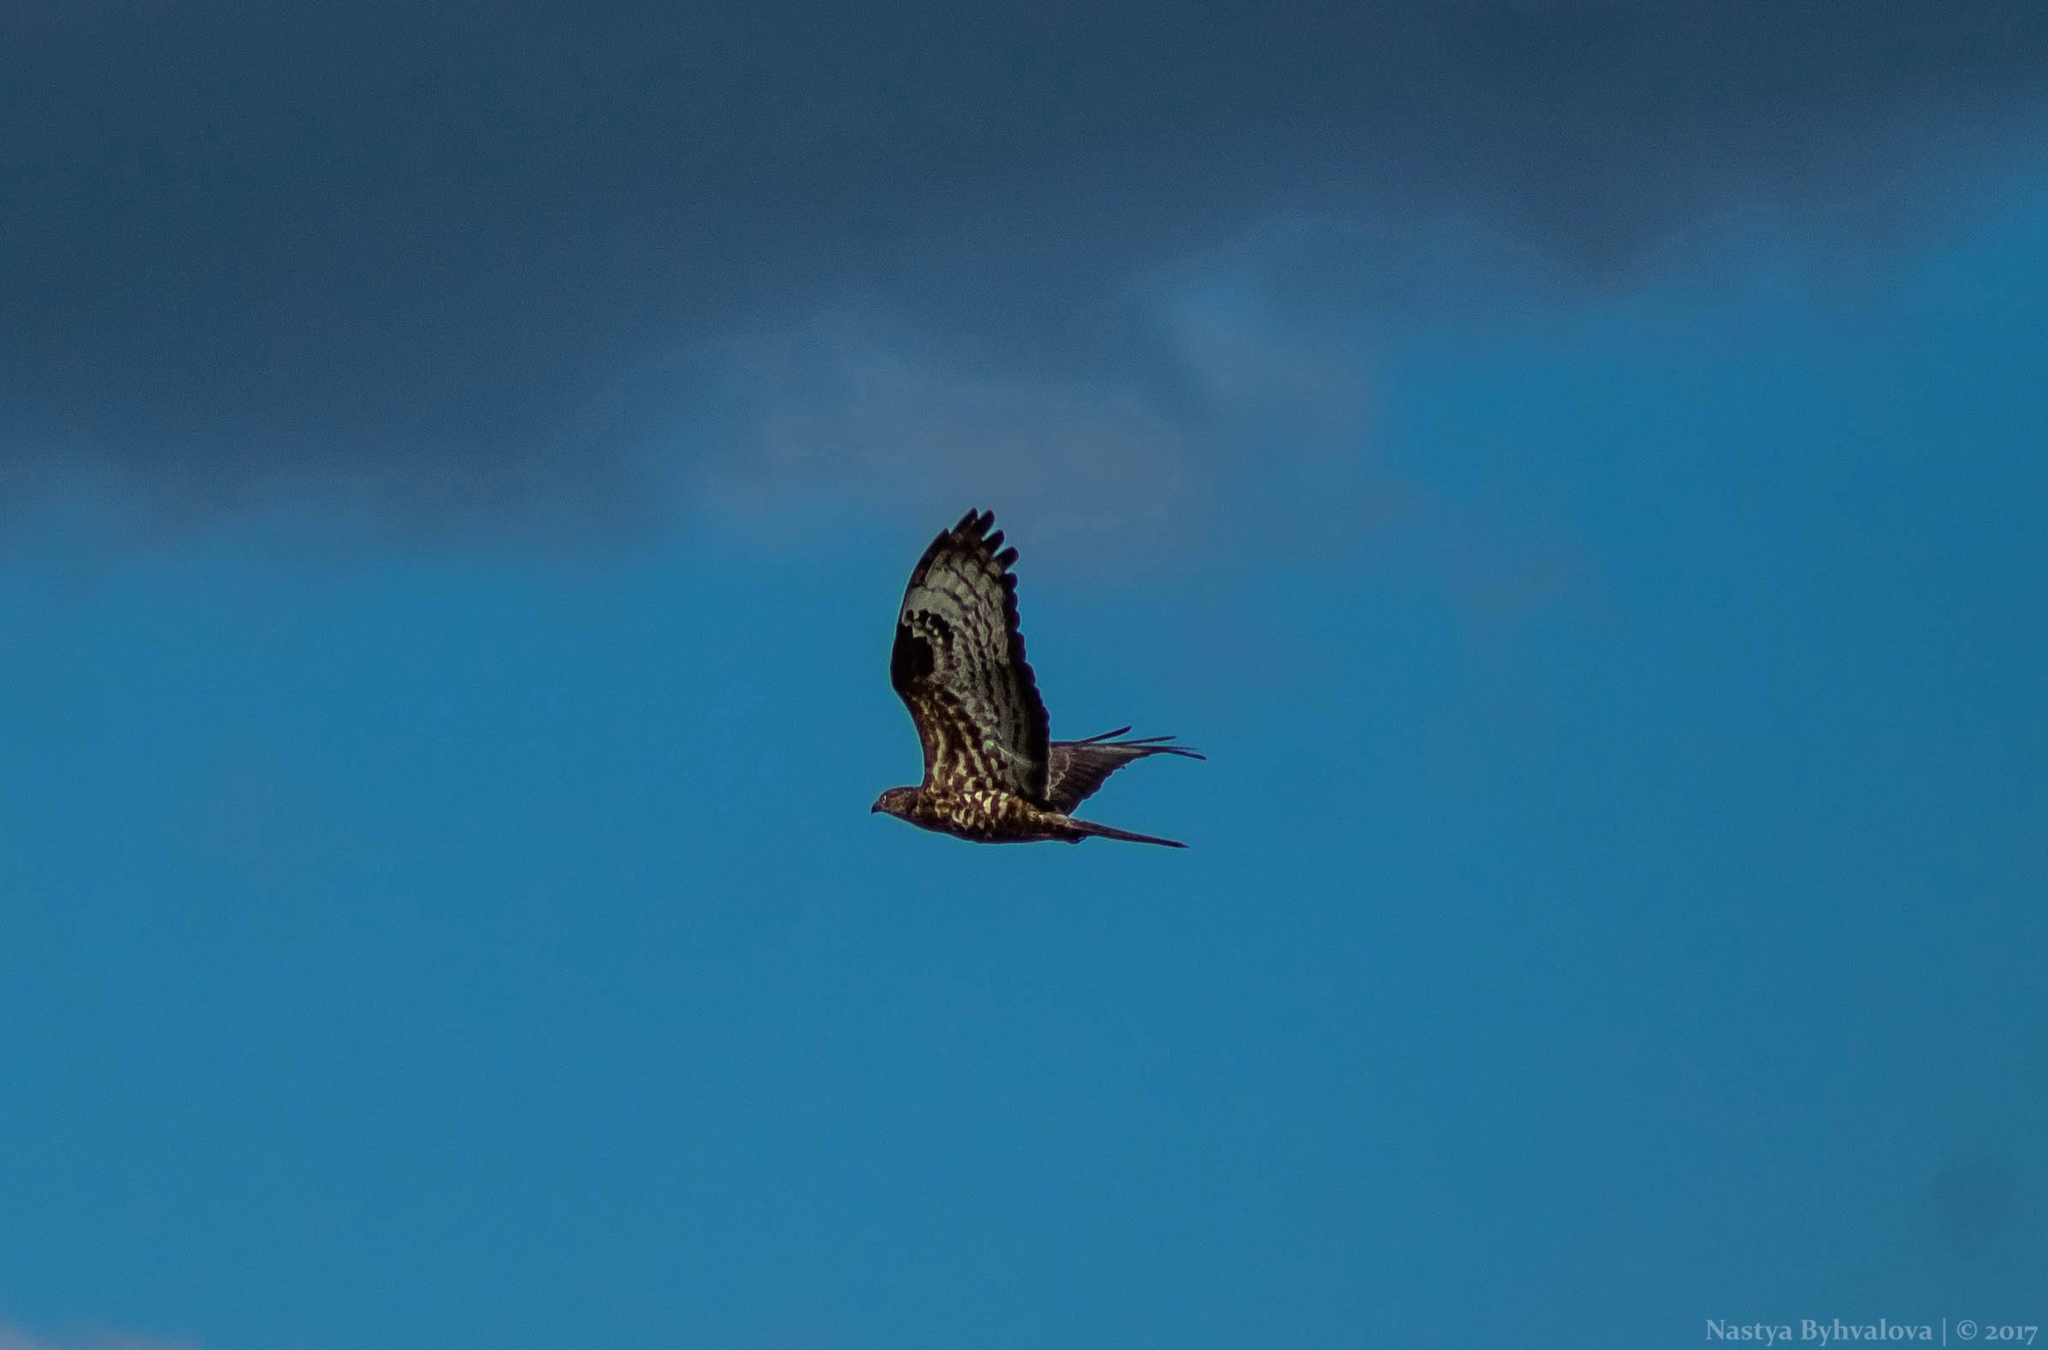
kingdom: Animalia
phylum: Chordata
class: Aves
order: Accipitriformes
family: Accipitridae
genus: Pernis
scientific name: Pernis apivorus
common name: European honey buzzard
